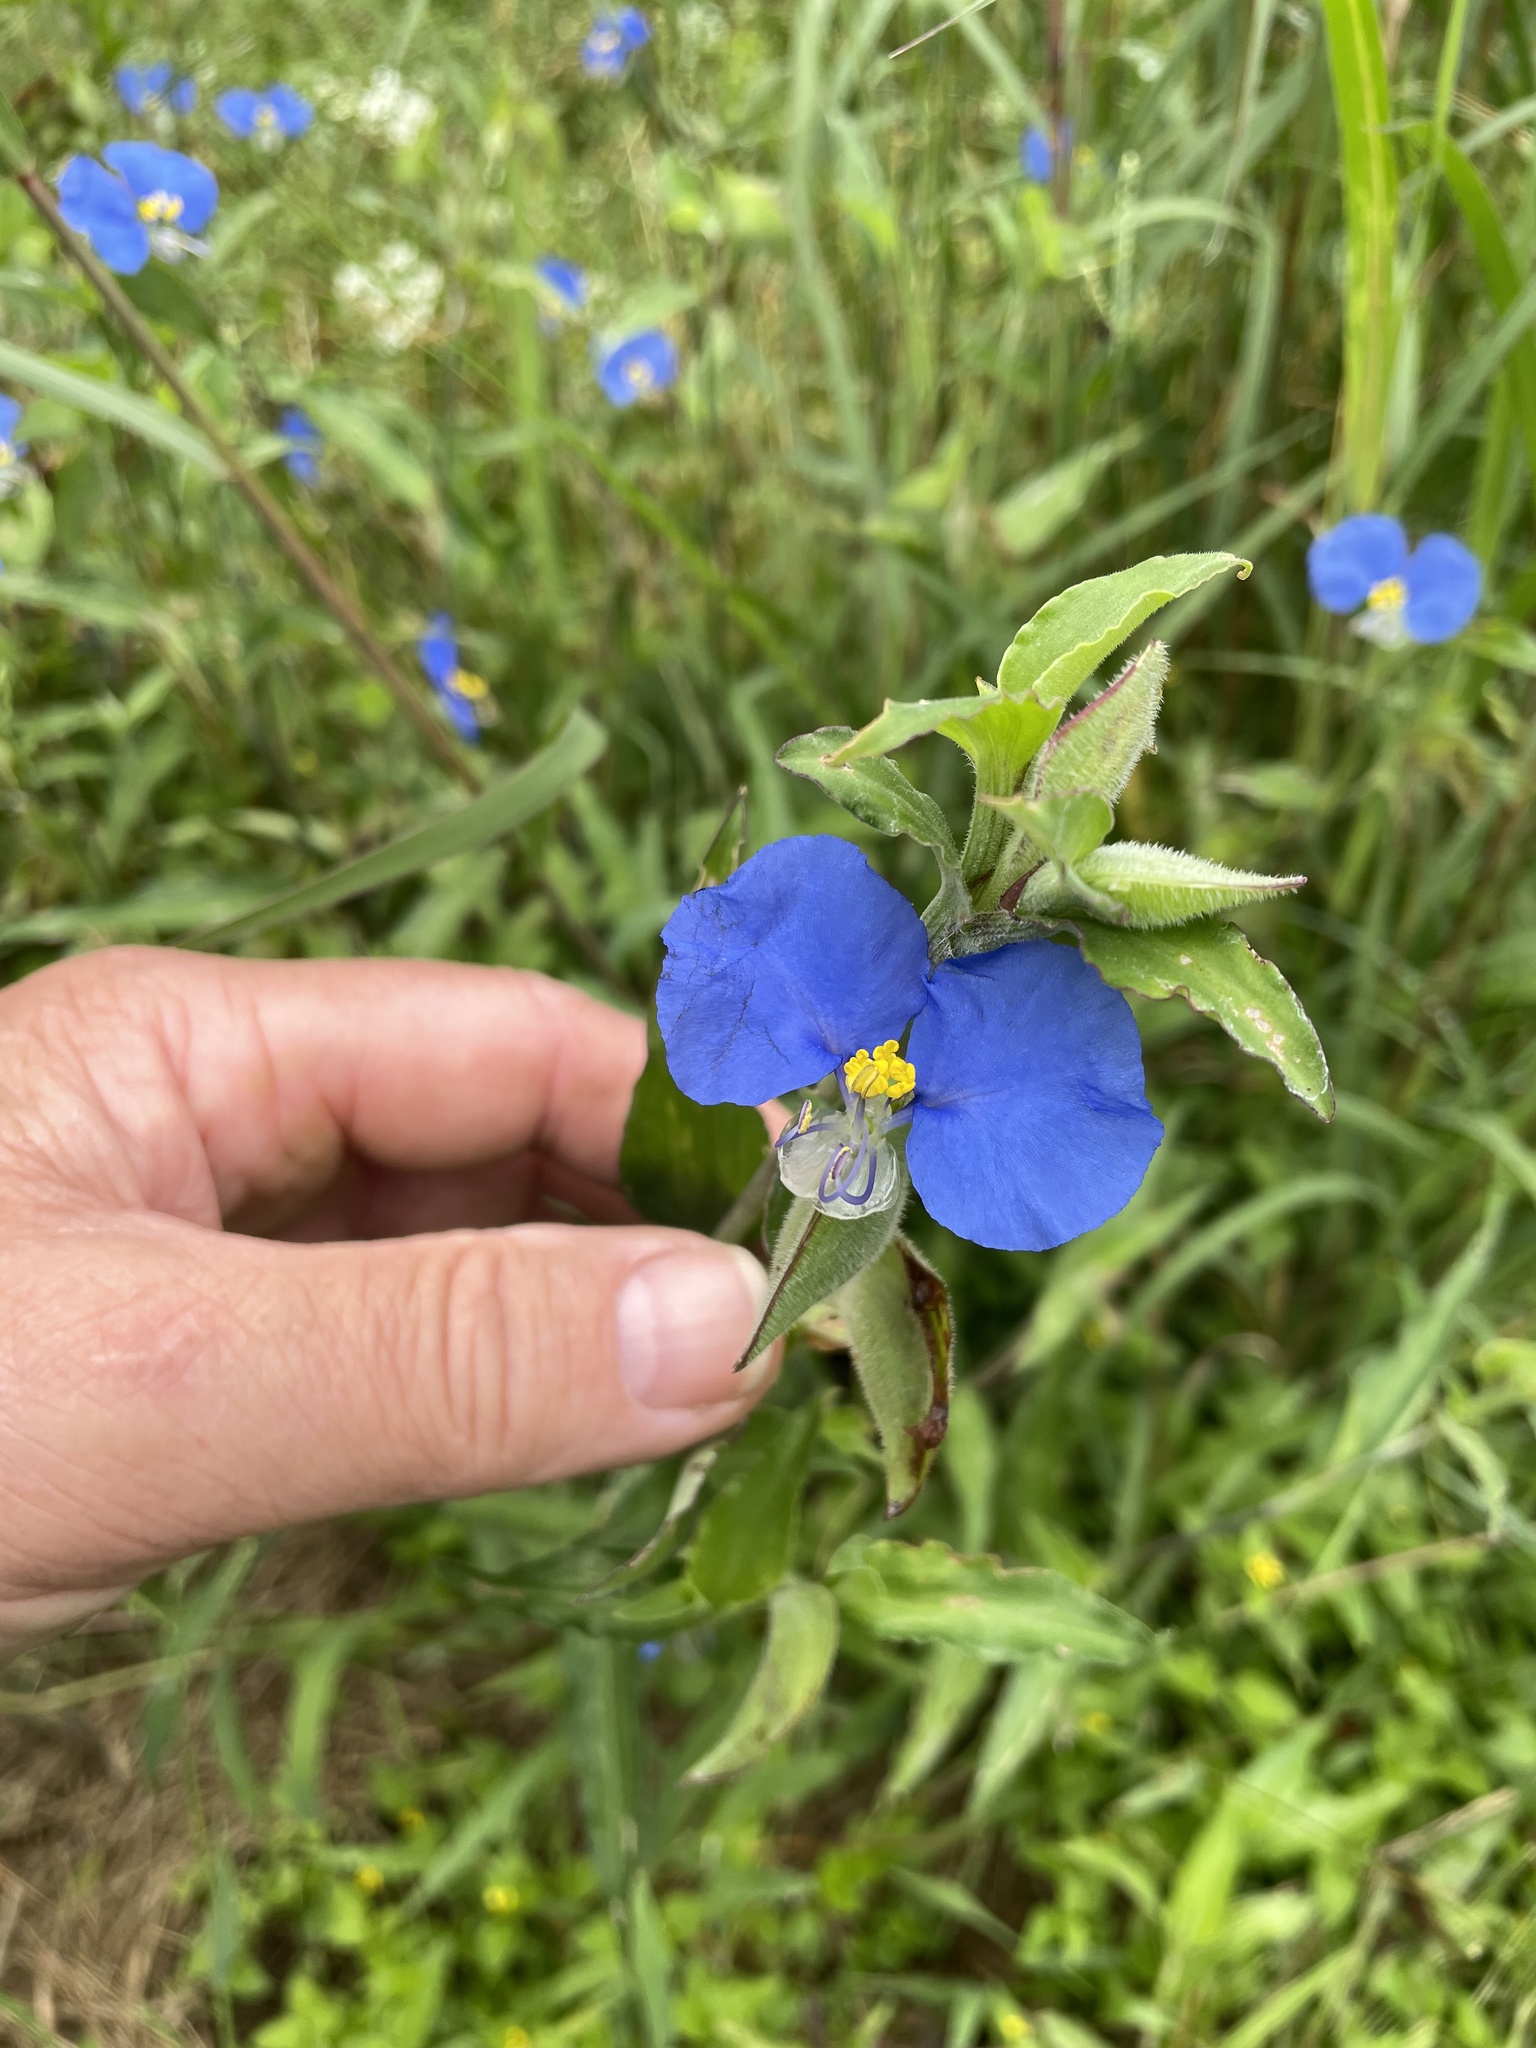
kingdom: Plantae
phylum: Tracheophyta
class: Liliopsida
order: Commelinales
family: Commelinaceae
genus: Commelina
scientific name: Commelina erecta
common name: Blousel blommetjie
